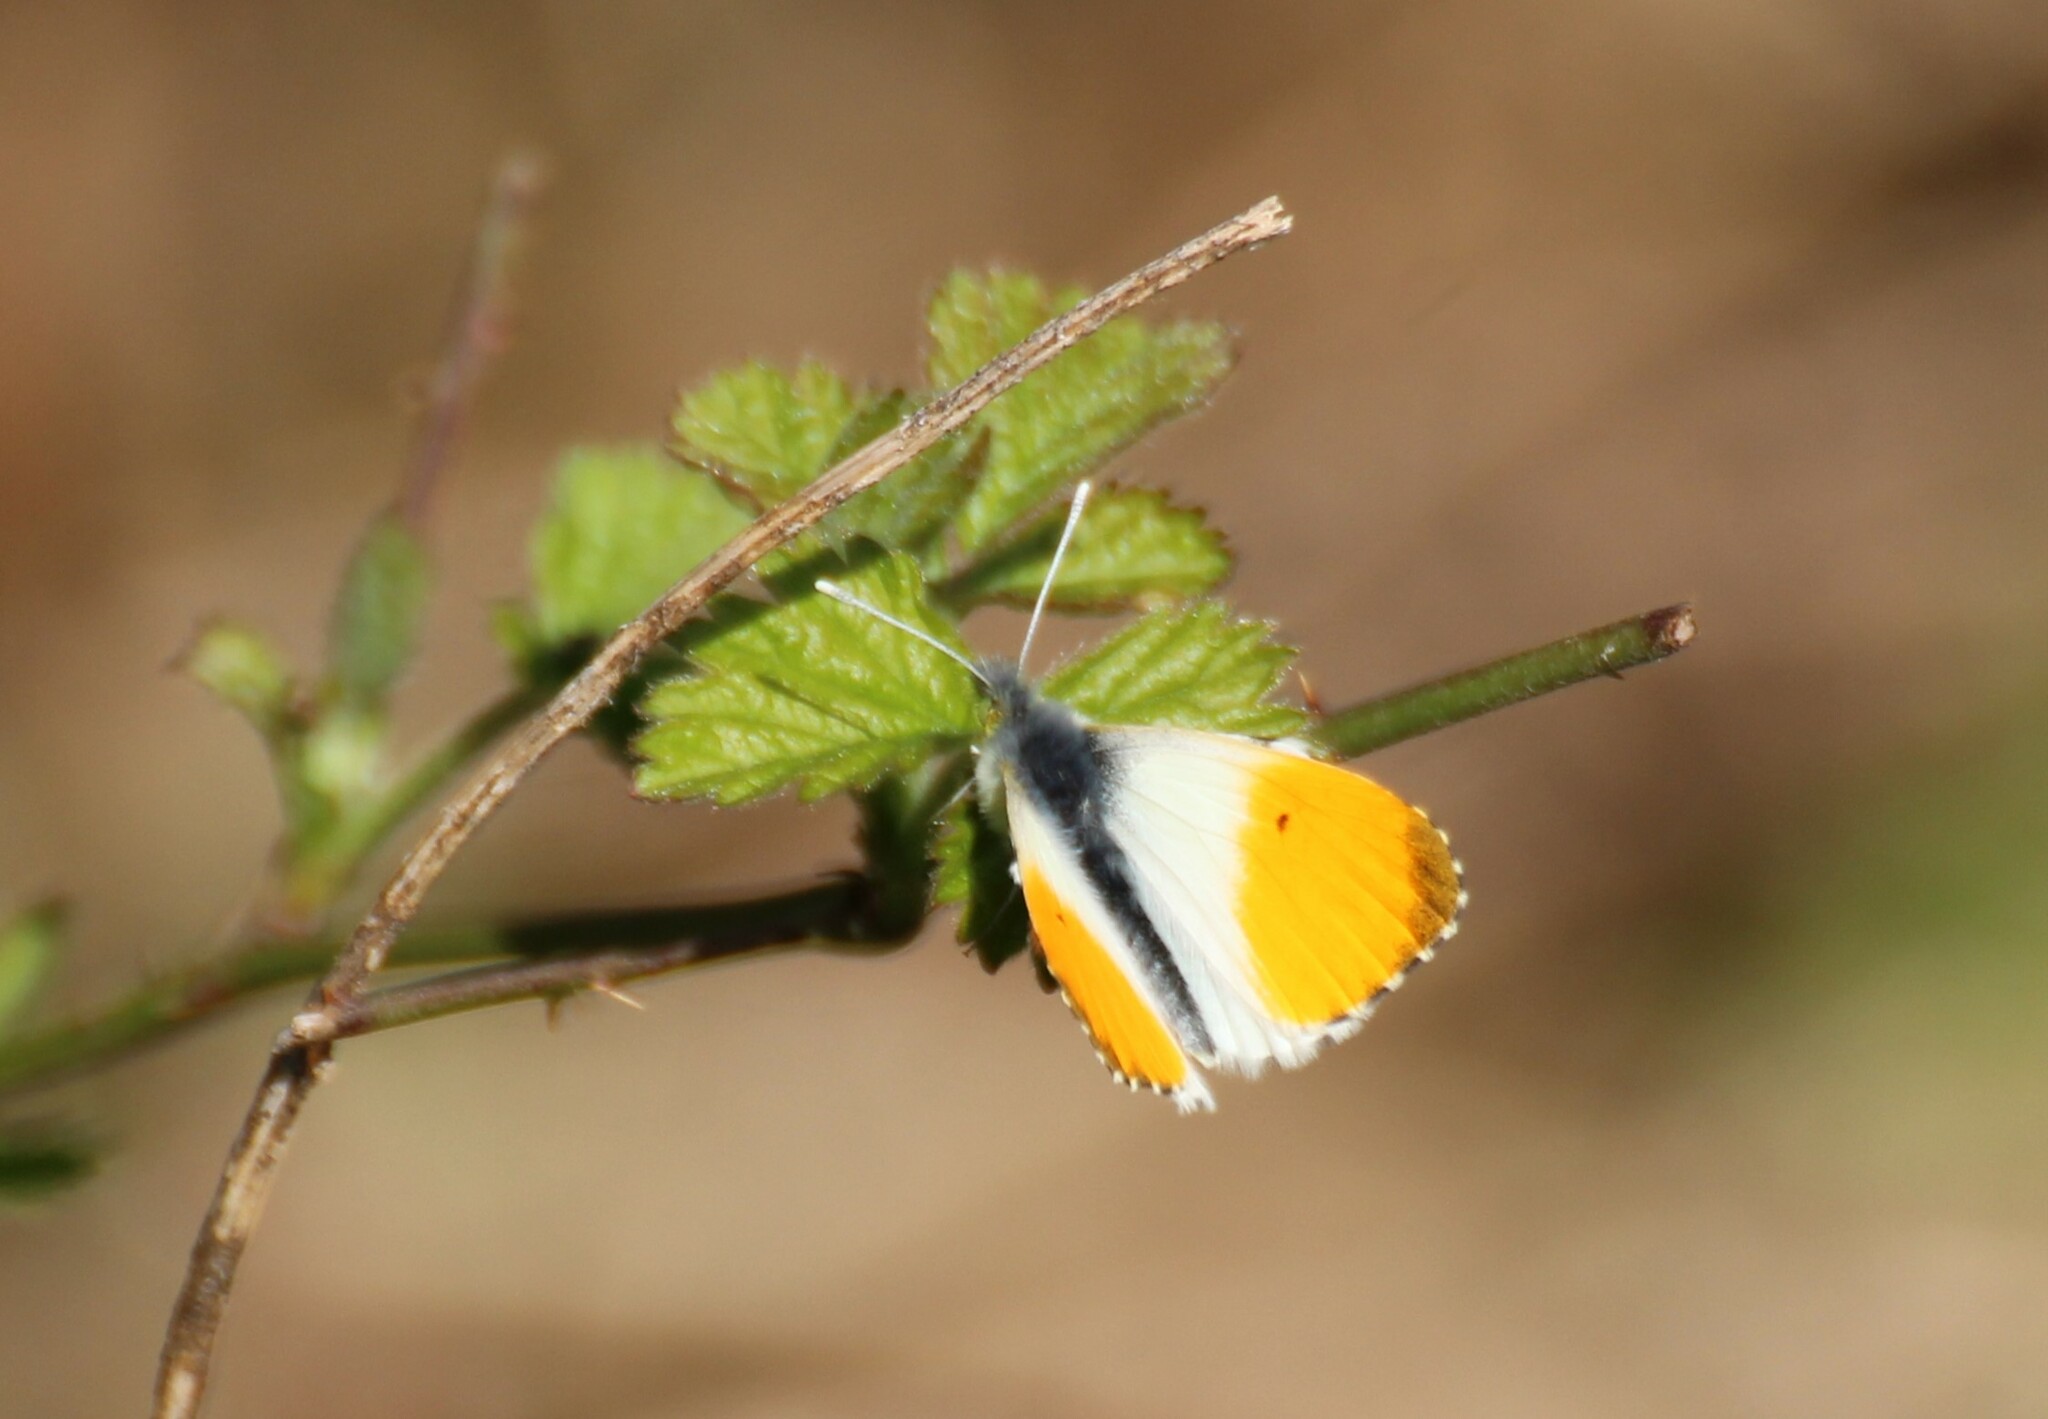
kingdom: Animalia
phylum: Arthropoda
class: Insecta
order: Lepidoptera
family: Pieridae
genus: Anthocharis
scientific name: Anthocharis cardamines
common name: Orange-tip
